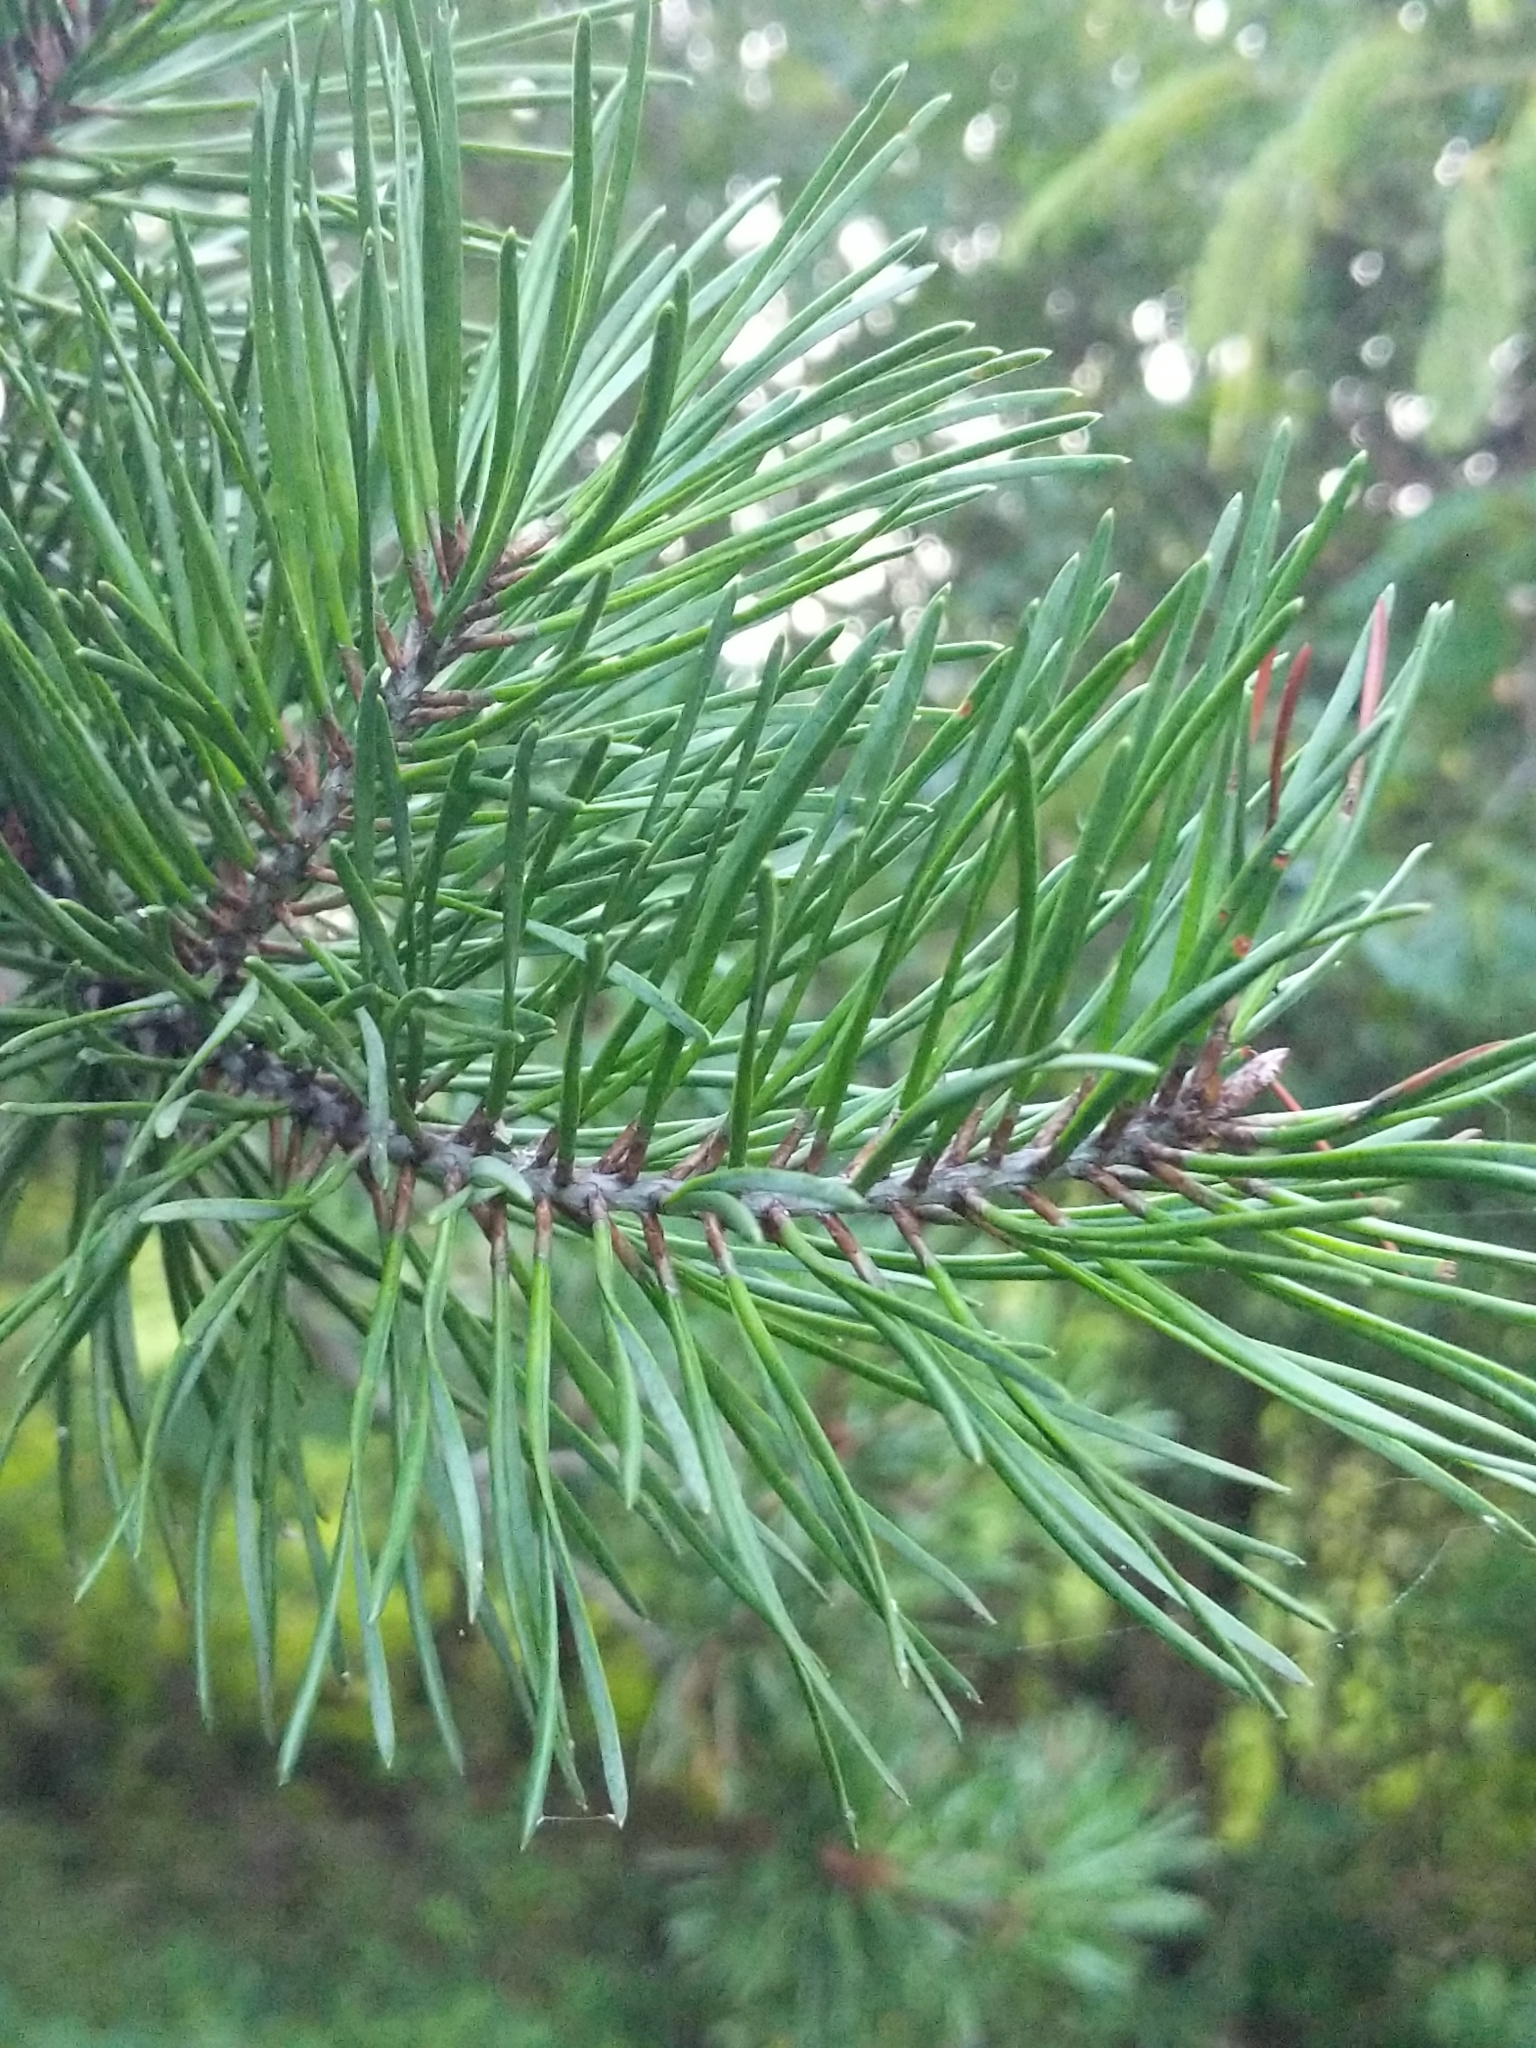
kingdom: Plantae
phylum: Tracheophyta
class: Pinopsida
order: Pinales
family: Pinaceae
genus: Pinus
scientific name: Pinus virginiana
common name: Scrub pine
